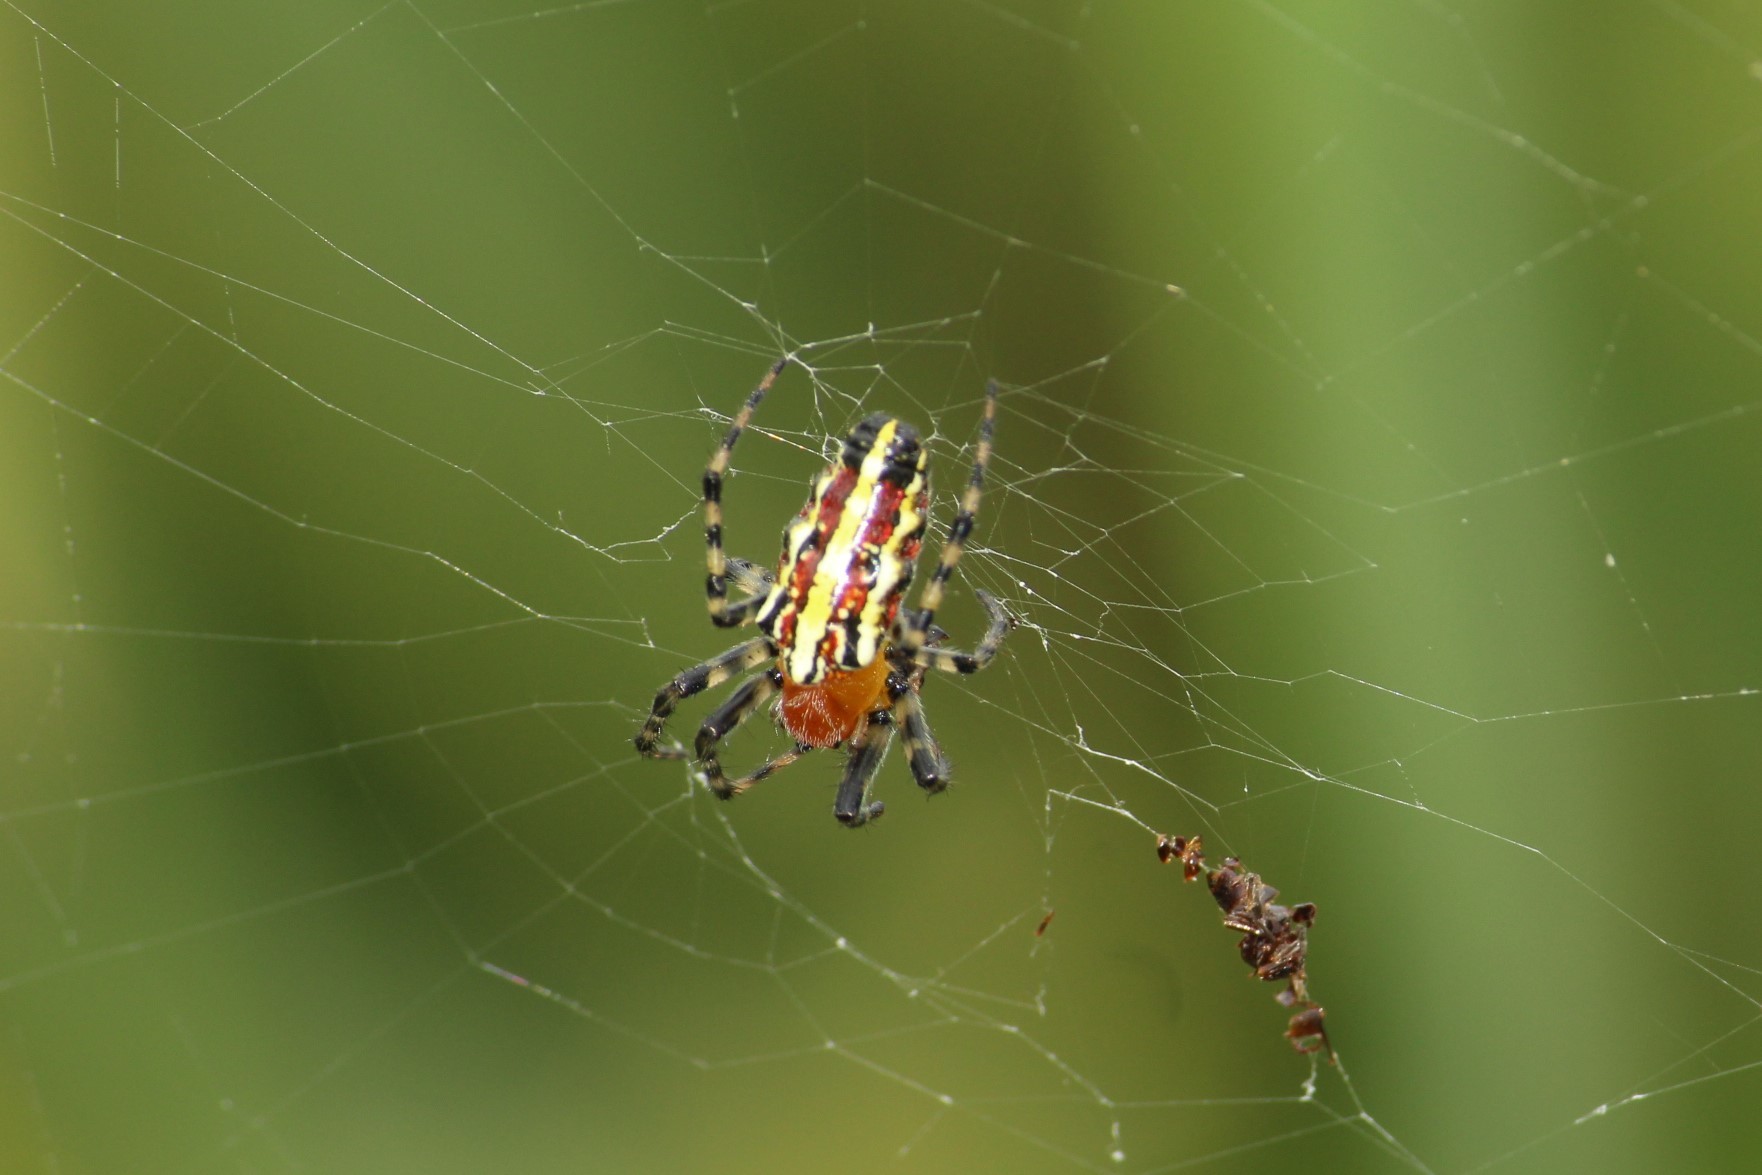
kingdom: Animalia
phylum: Arthropoda
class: Arachnida
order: Araneae
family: Araneidae
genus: Alpaida
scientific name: Alpaida grayi
